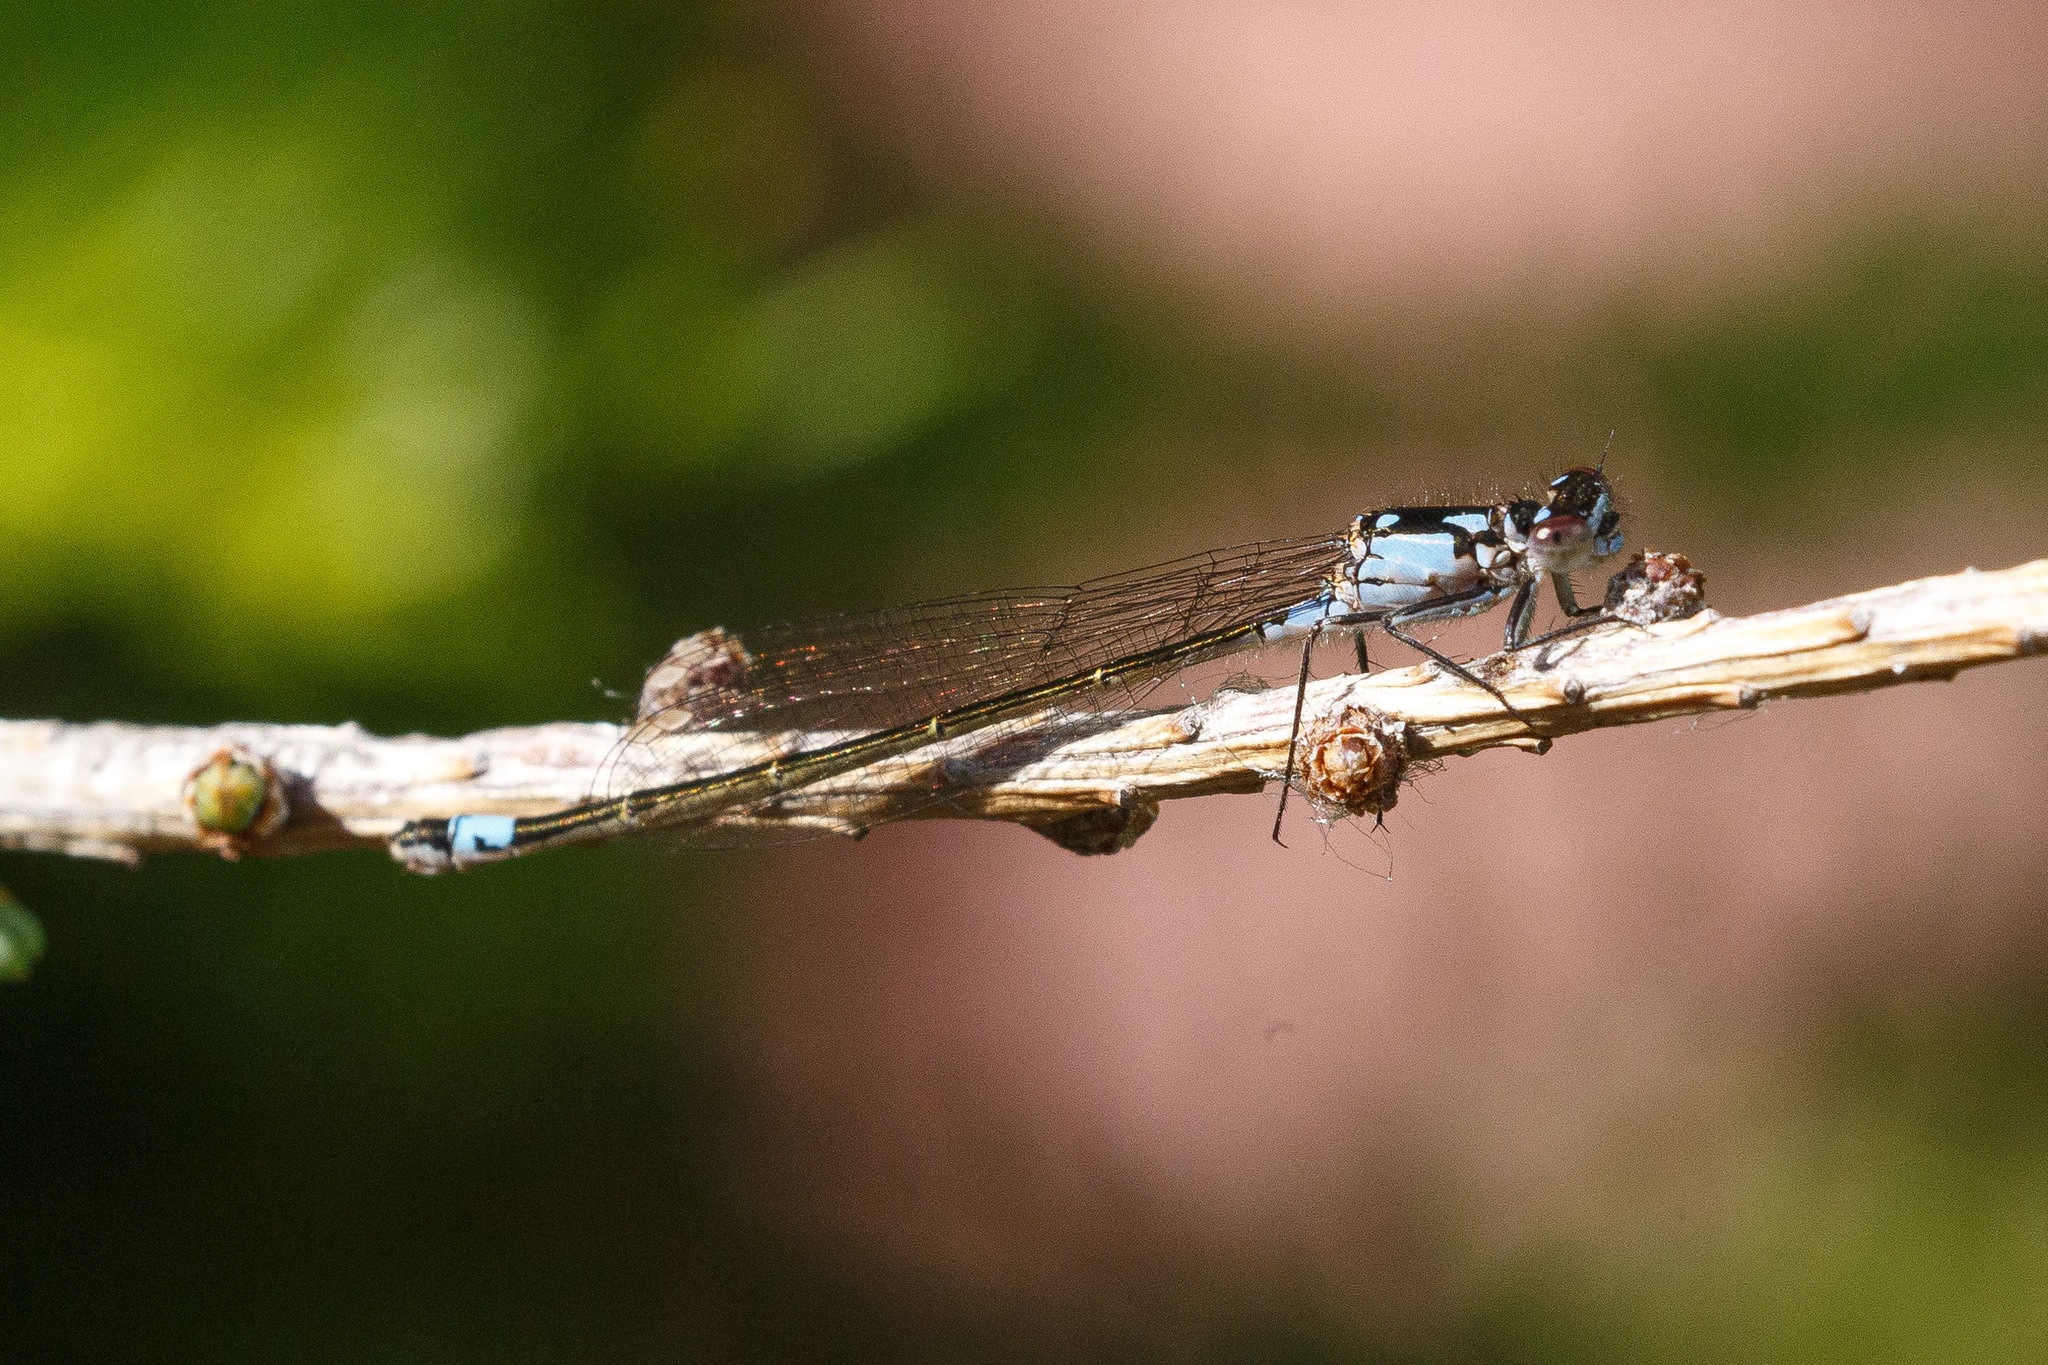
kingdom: Animalia
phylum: Arthropoda
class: Insecta
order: Odonata
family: Coenagrionidae
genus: Ischnura
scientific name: Ischnura cervula
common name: Pacific forktail
